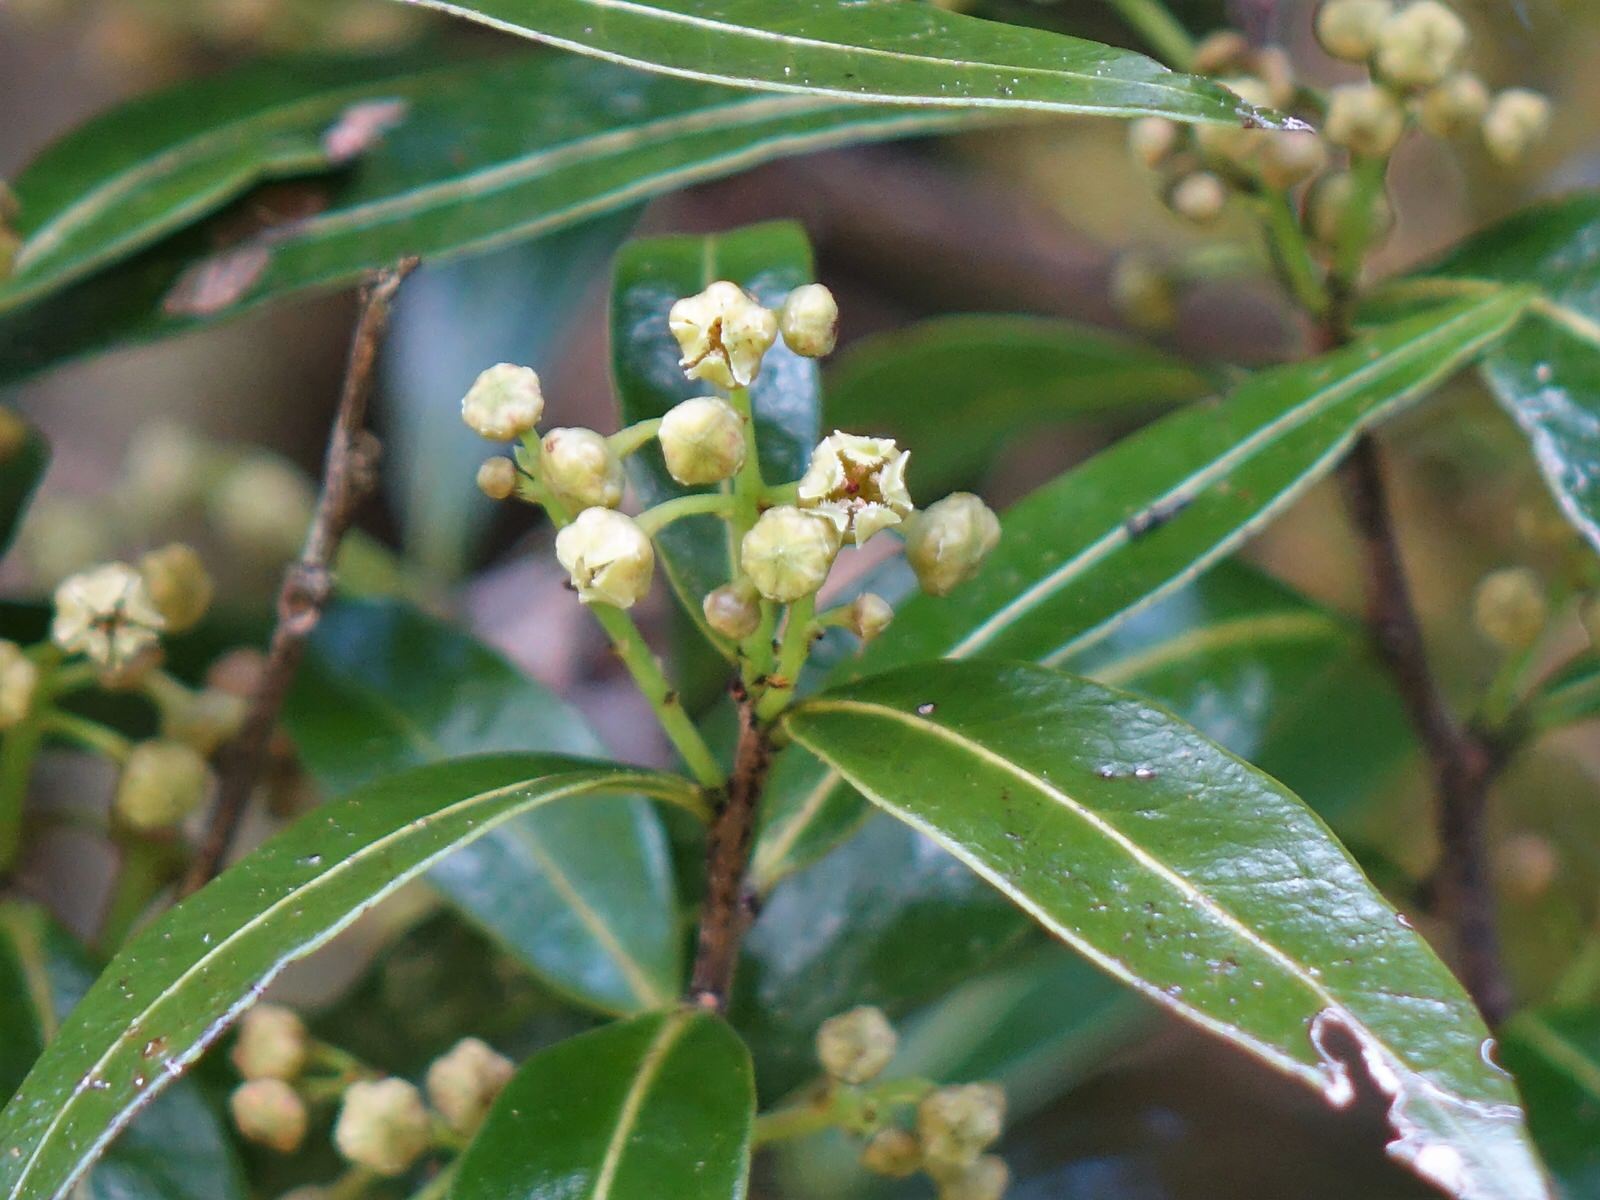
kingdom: Plantae
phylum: Tracheophyta
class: Magnoliopsida
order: Lamiales
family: Oleaceae
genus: Nestegis
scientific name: Nestegis lanceolata
